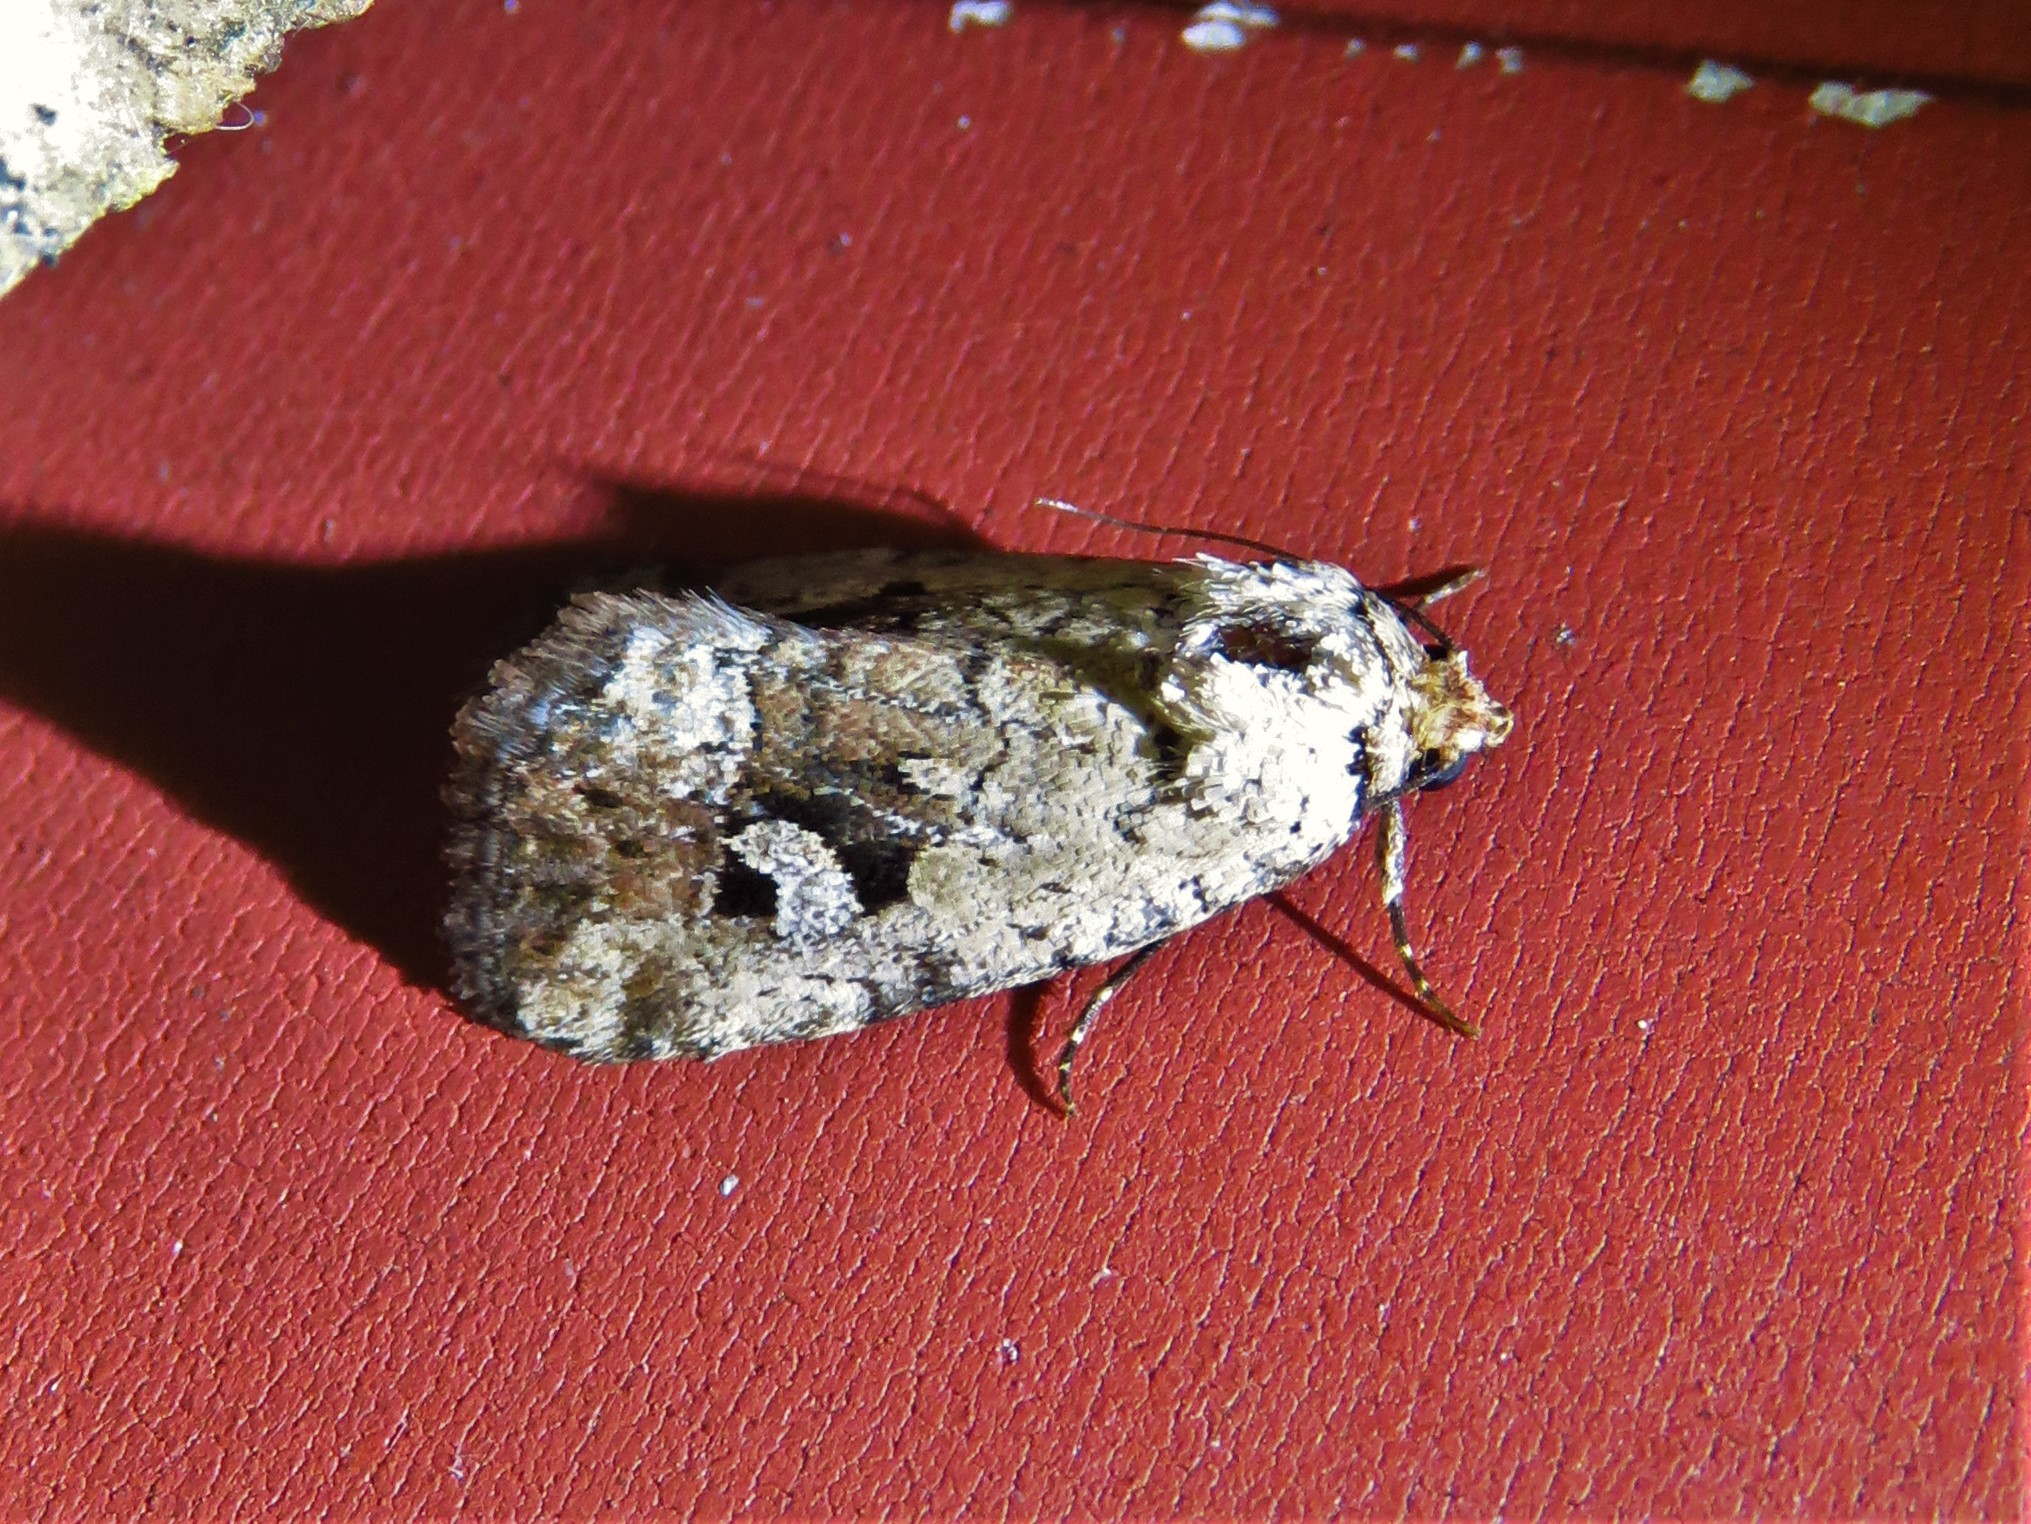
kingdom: Animalia
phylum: Arthropoda
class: Insecta
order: Lepidoptera
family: Noctuidae
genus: Elaphria
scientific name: Elaphria festivoides
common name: Festive midget
